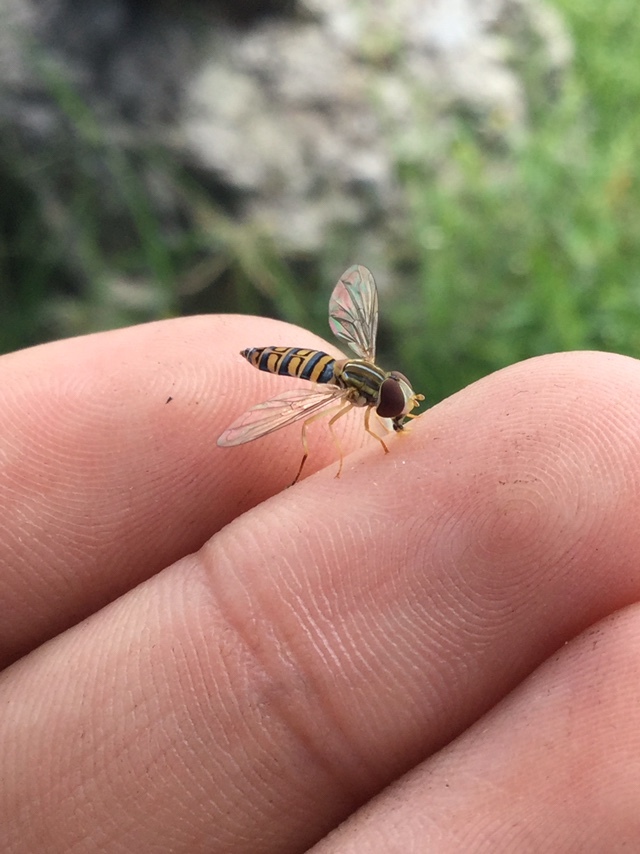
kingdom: Animalia
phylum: Arthropoda
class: Insecta
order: Diptera
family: Syrphidae
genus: Toxomerus
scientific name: Toxomerus politus
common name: Maize calligrapher
